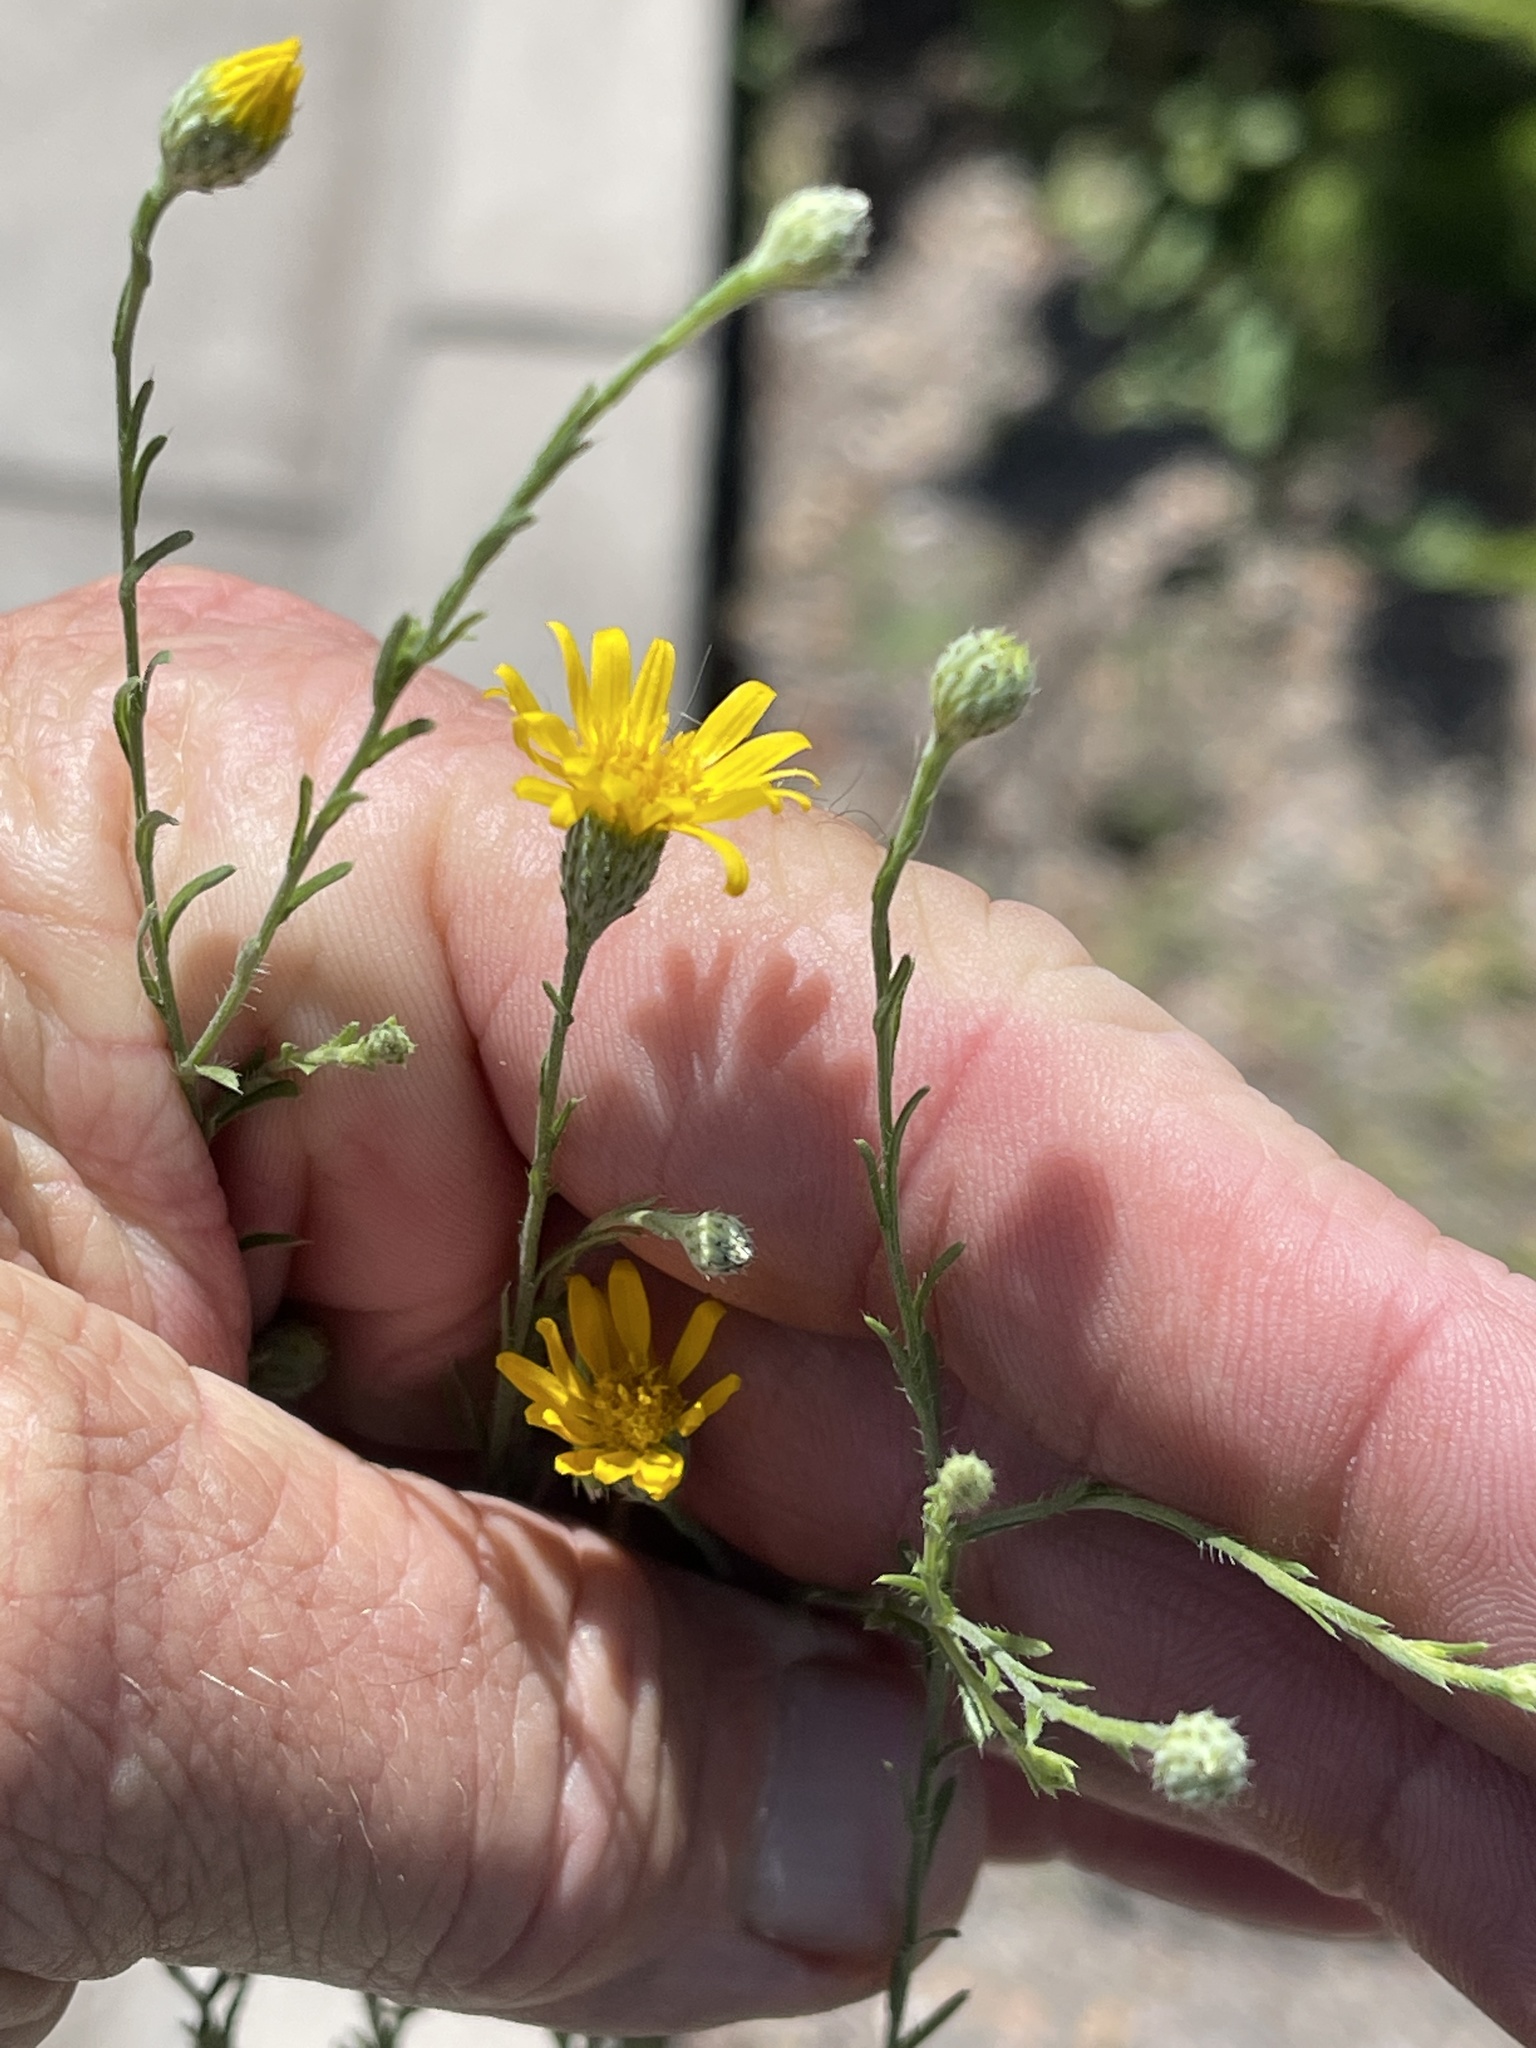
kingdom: Plantae
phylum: Tracheophyta
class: Magnoliopsida
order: Asterales
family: Asteraceae
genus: Xanthisma
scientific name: Xanthisma gracile
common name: Slender goldenweed
